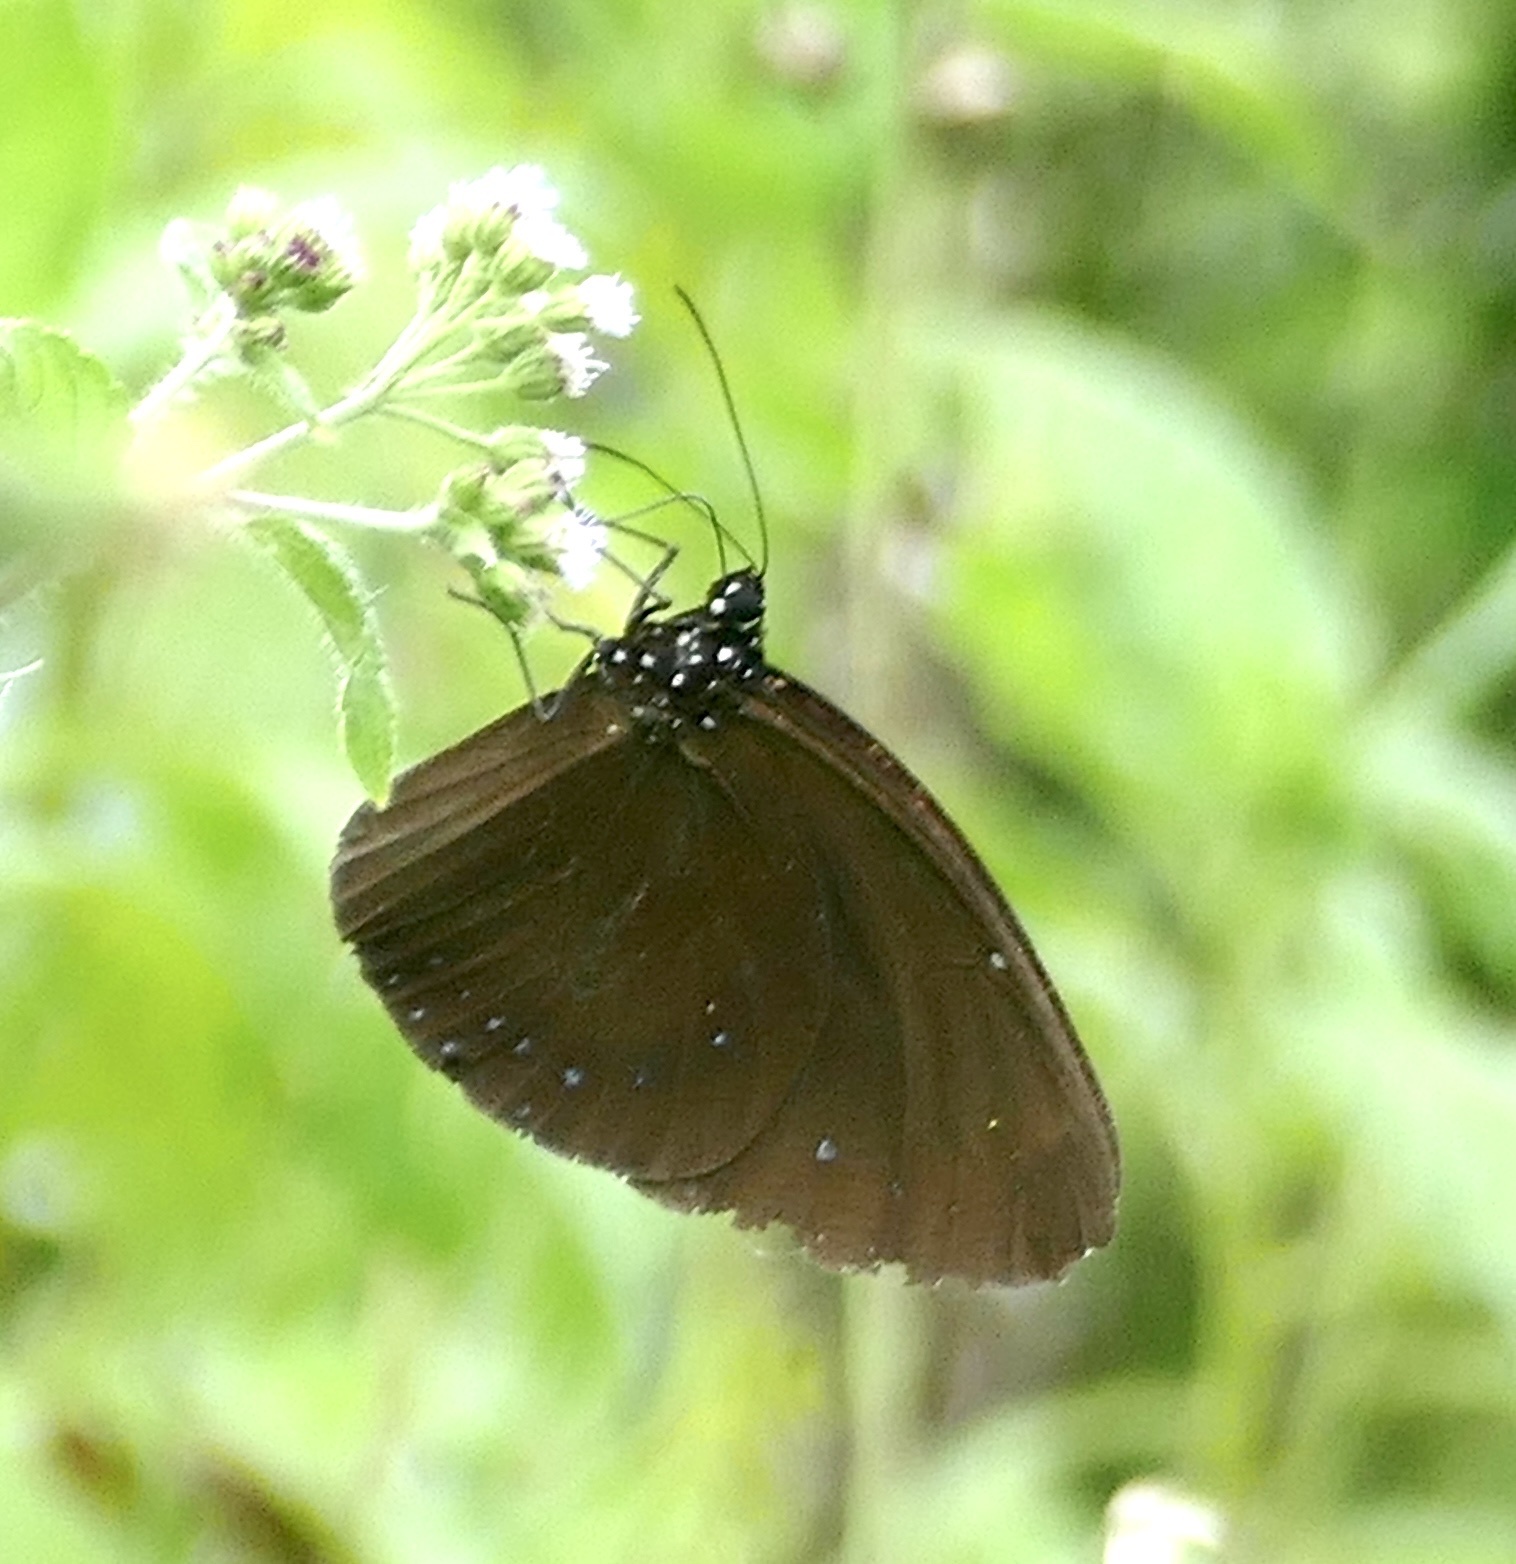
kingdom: Animalia
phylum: Arthropoda
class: Insecta
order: Lepidoptera
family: Nymphalidae
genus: Euploea
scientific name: Euploea westwoodii
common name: Westwood's king crow
